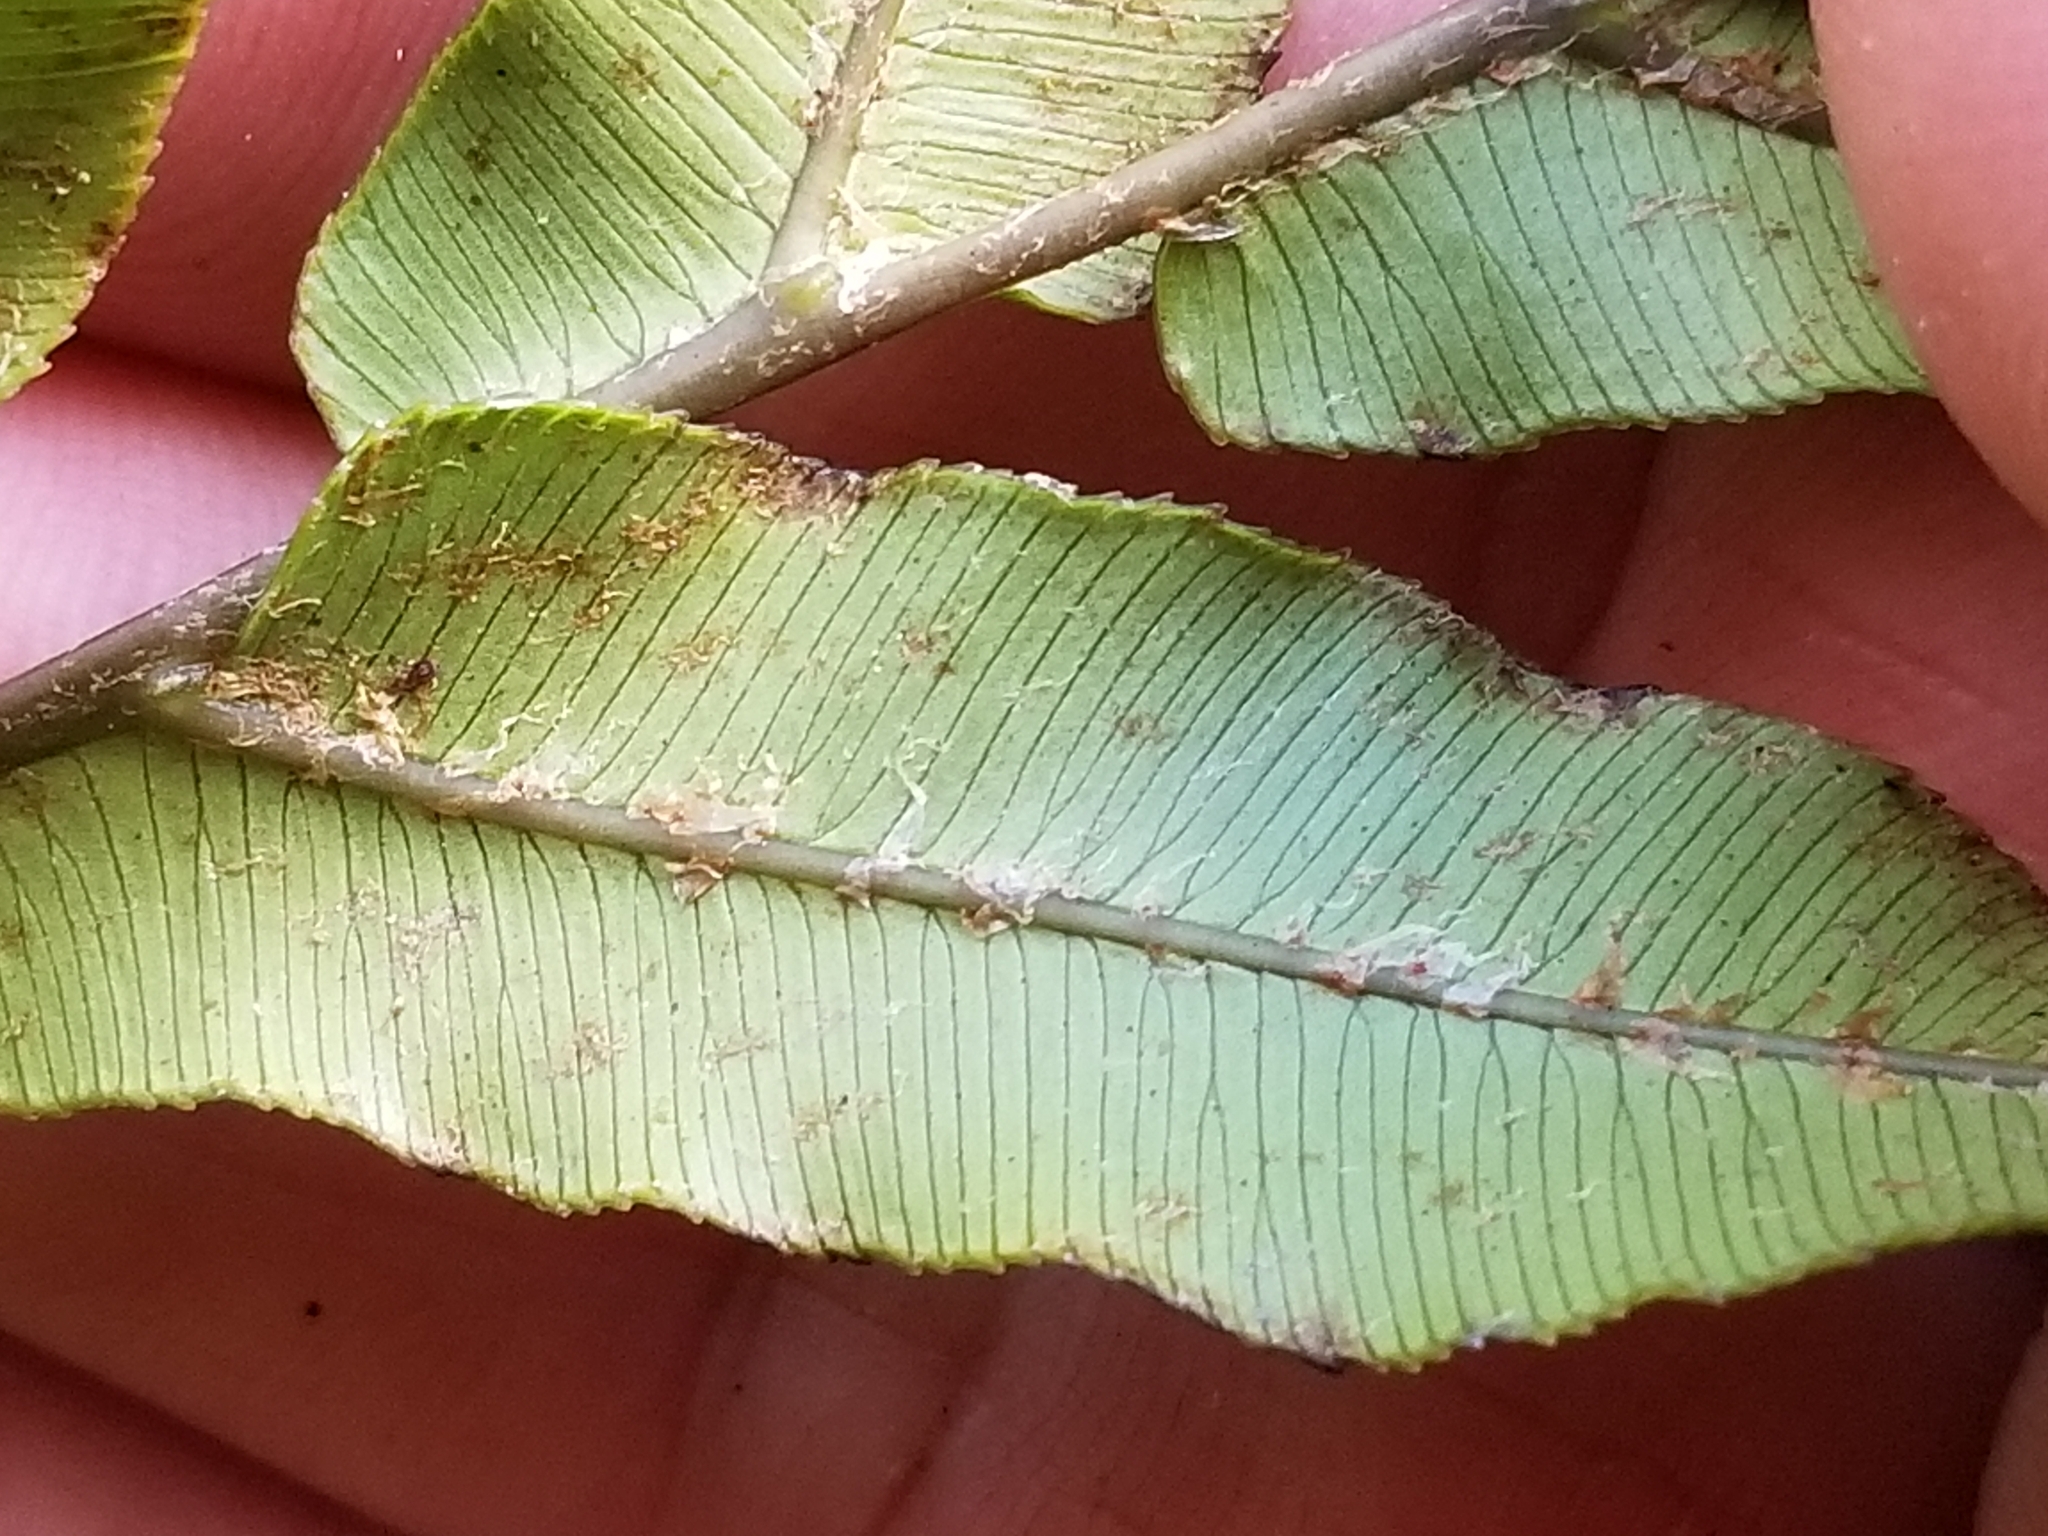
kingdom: Plantae
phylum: Tracheophyta
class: Polypodiopsida
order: Polypodiales
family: Blechnaceae
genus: Parablechnum
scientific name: Parablechnum novae-zelandiae
